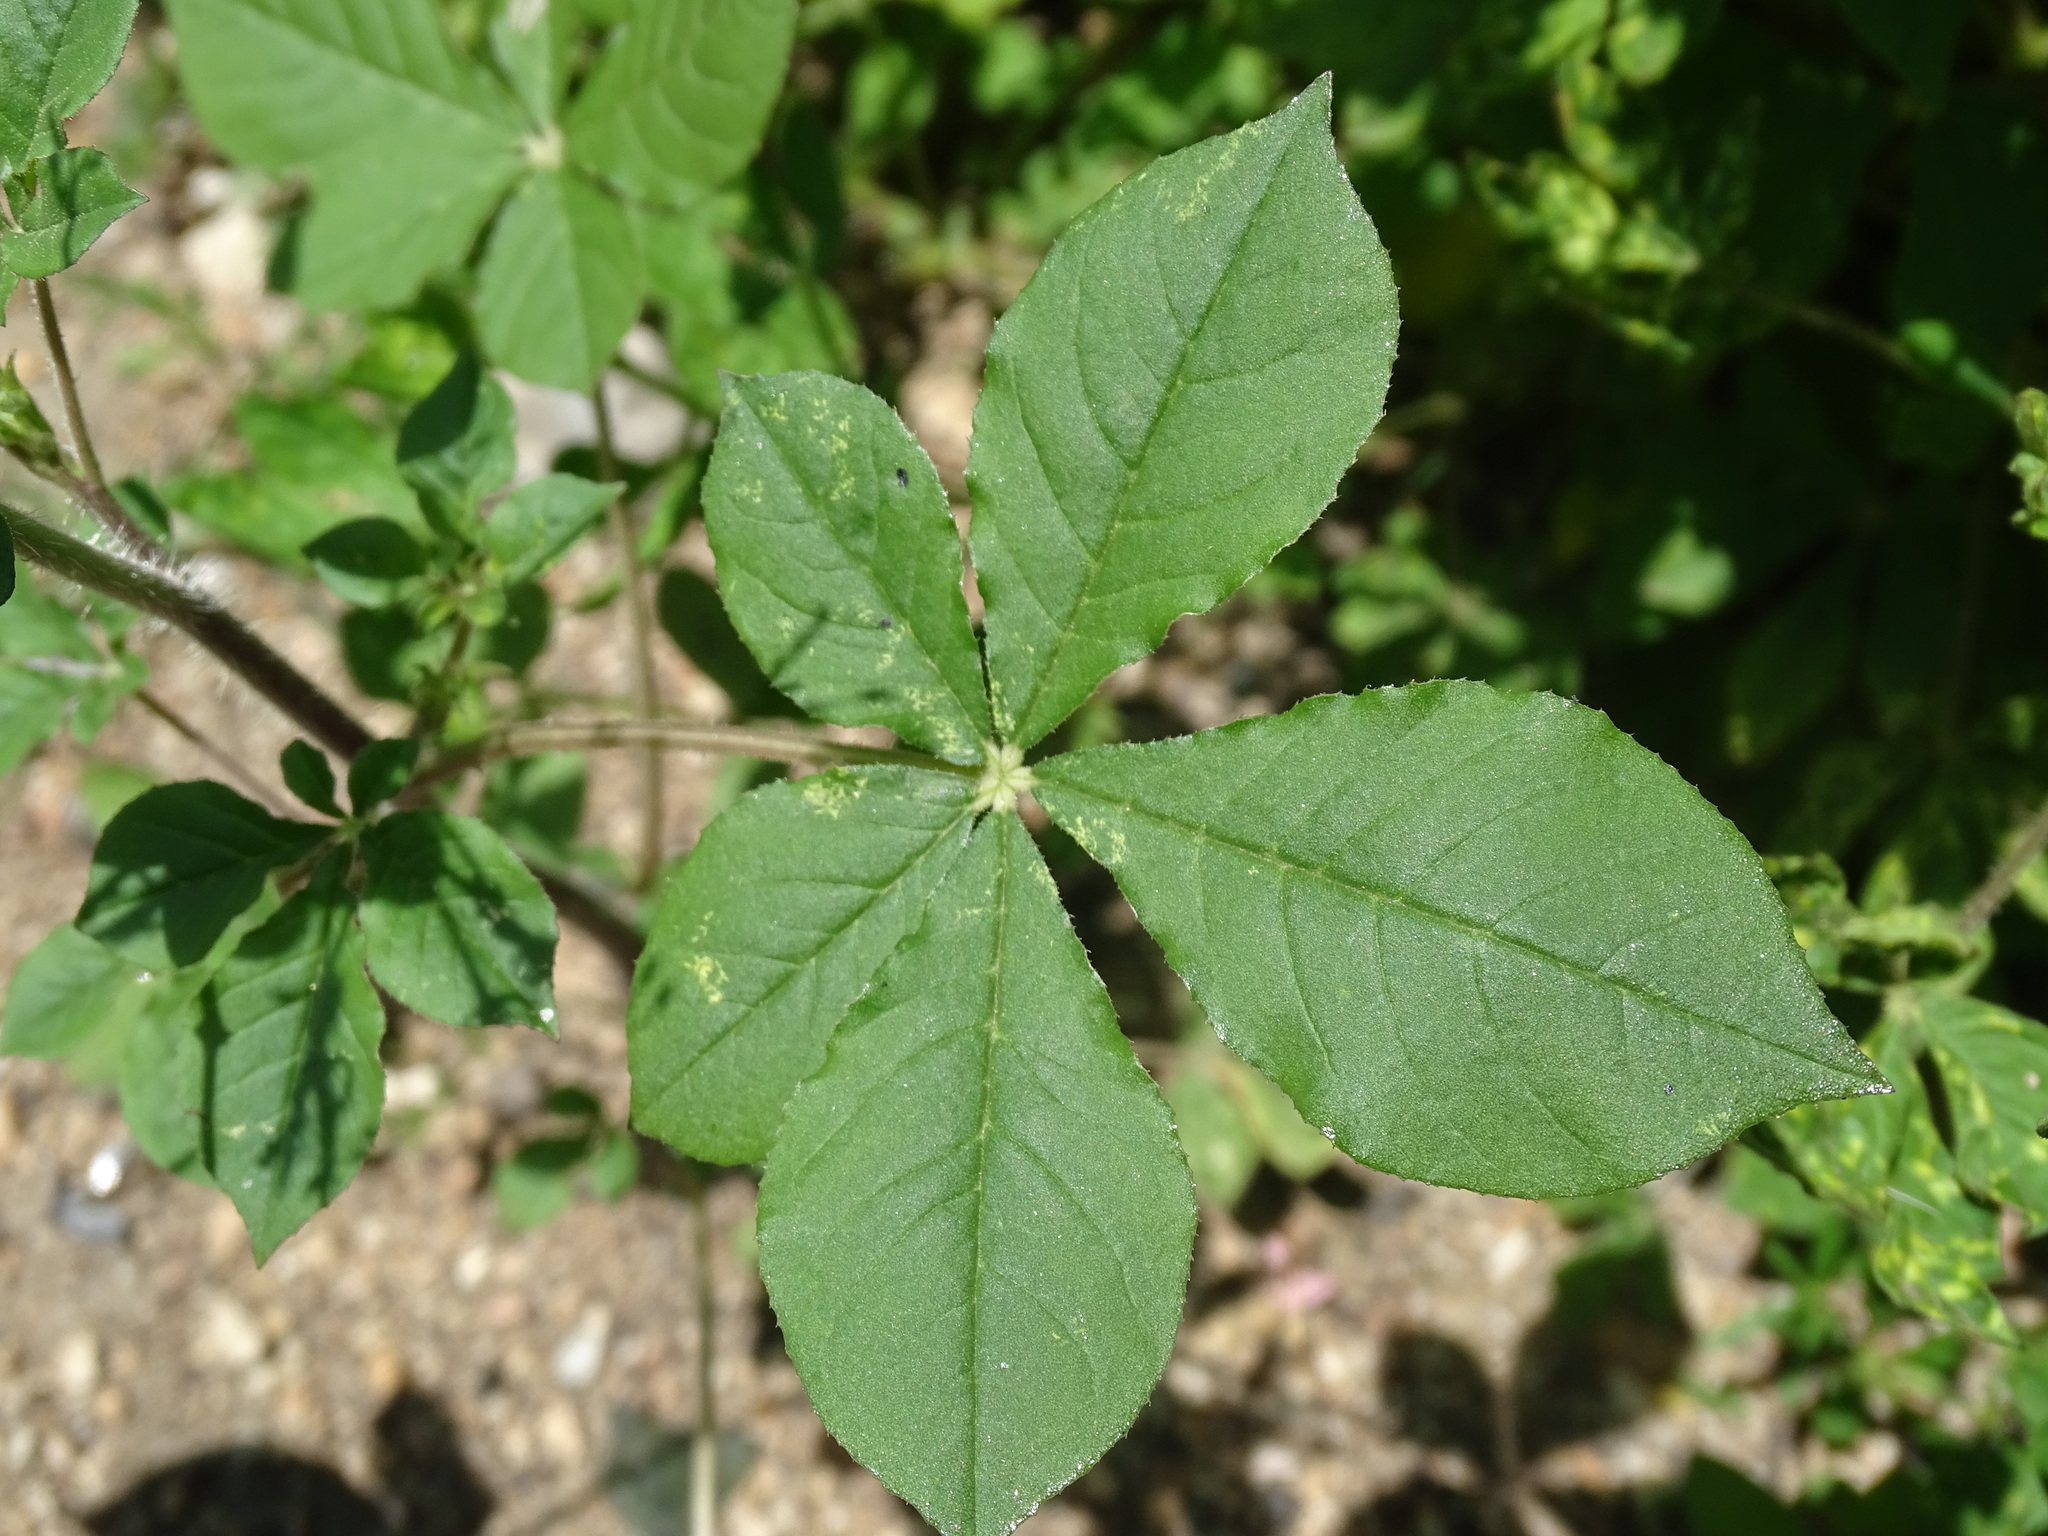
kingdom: Plantae
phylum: Tracheophyta
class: Magnoliopsida
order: Brassicales
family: Cleomaceae
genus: Gynandropsis
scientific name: Gynandropsis gynandra
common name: Spiderwisp
